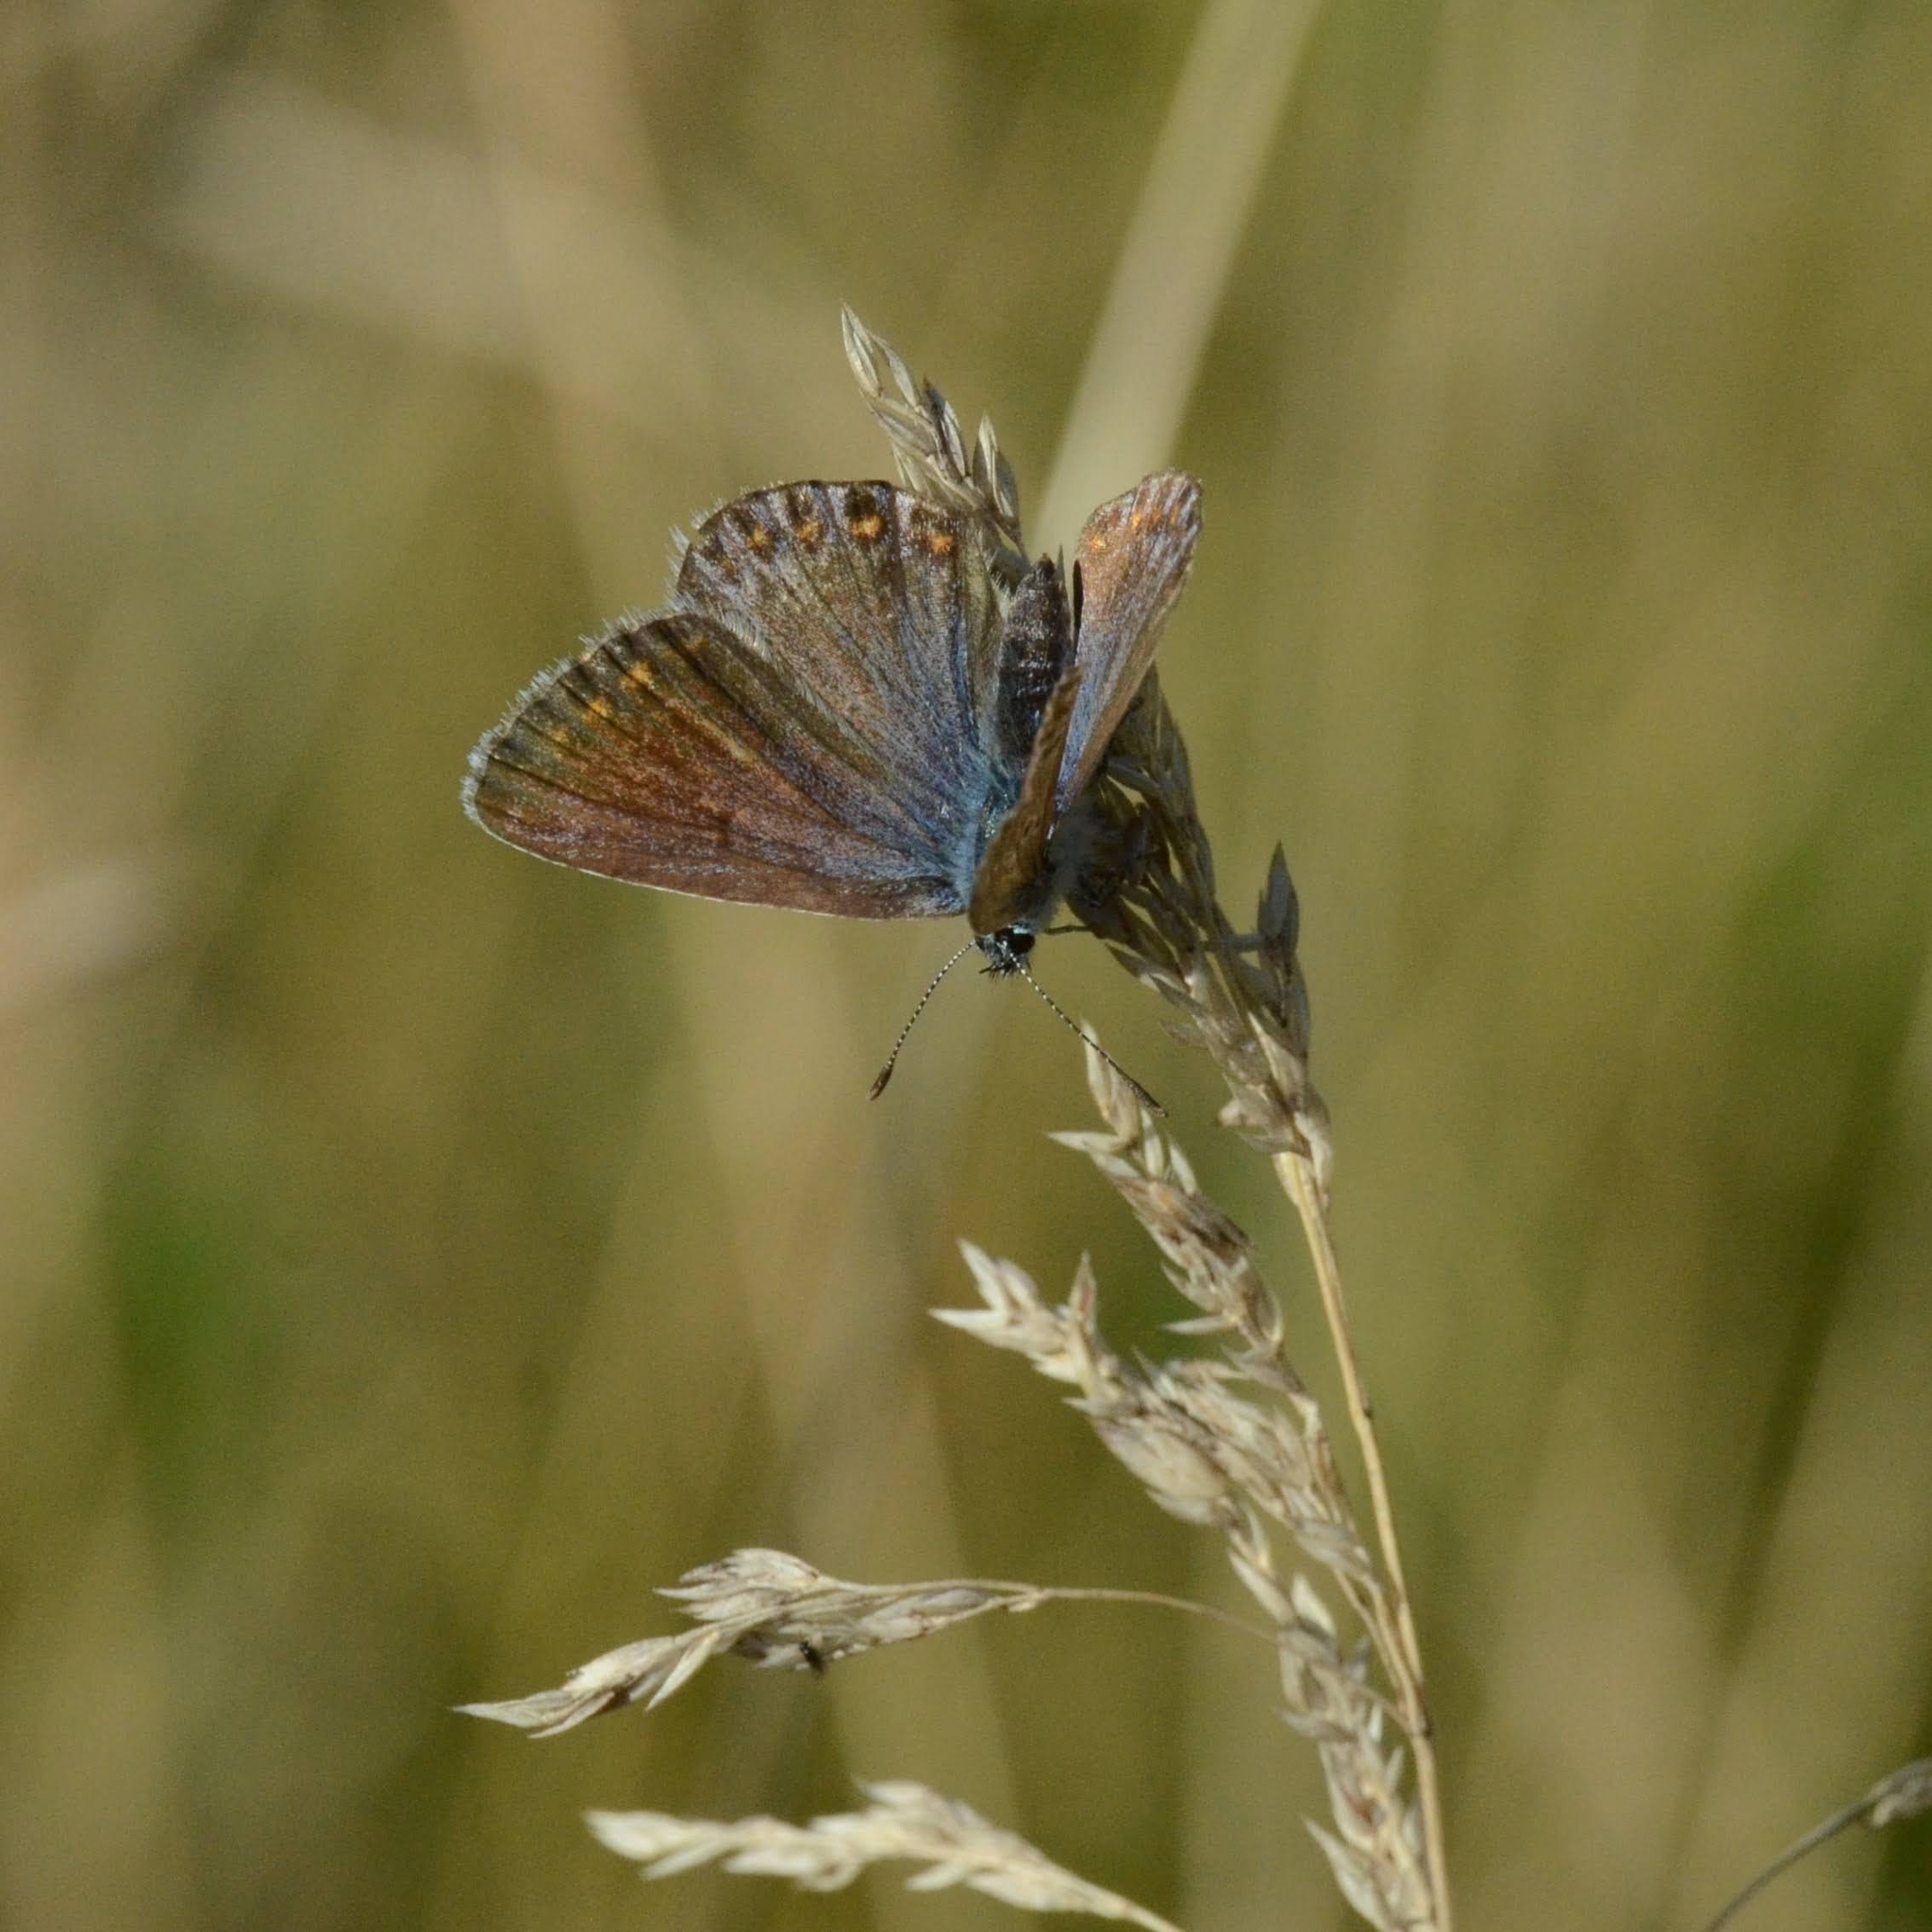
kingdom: Animalia
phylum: Arthropoda
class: Insecta
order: Lepidoptera
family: Lycaenidae
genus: Polyommatus
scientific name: Polyommatus icarus
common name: Common blue
